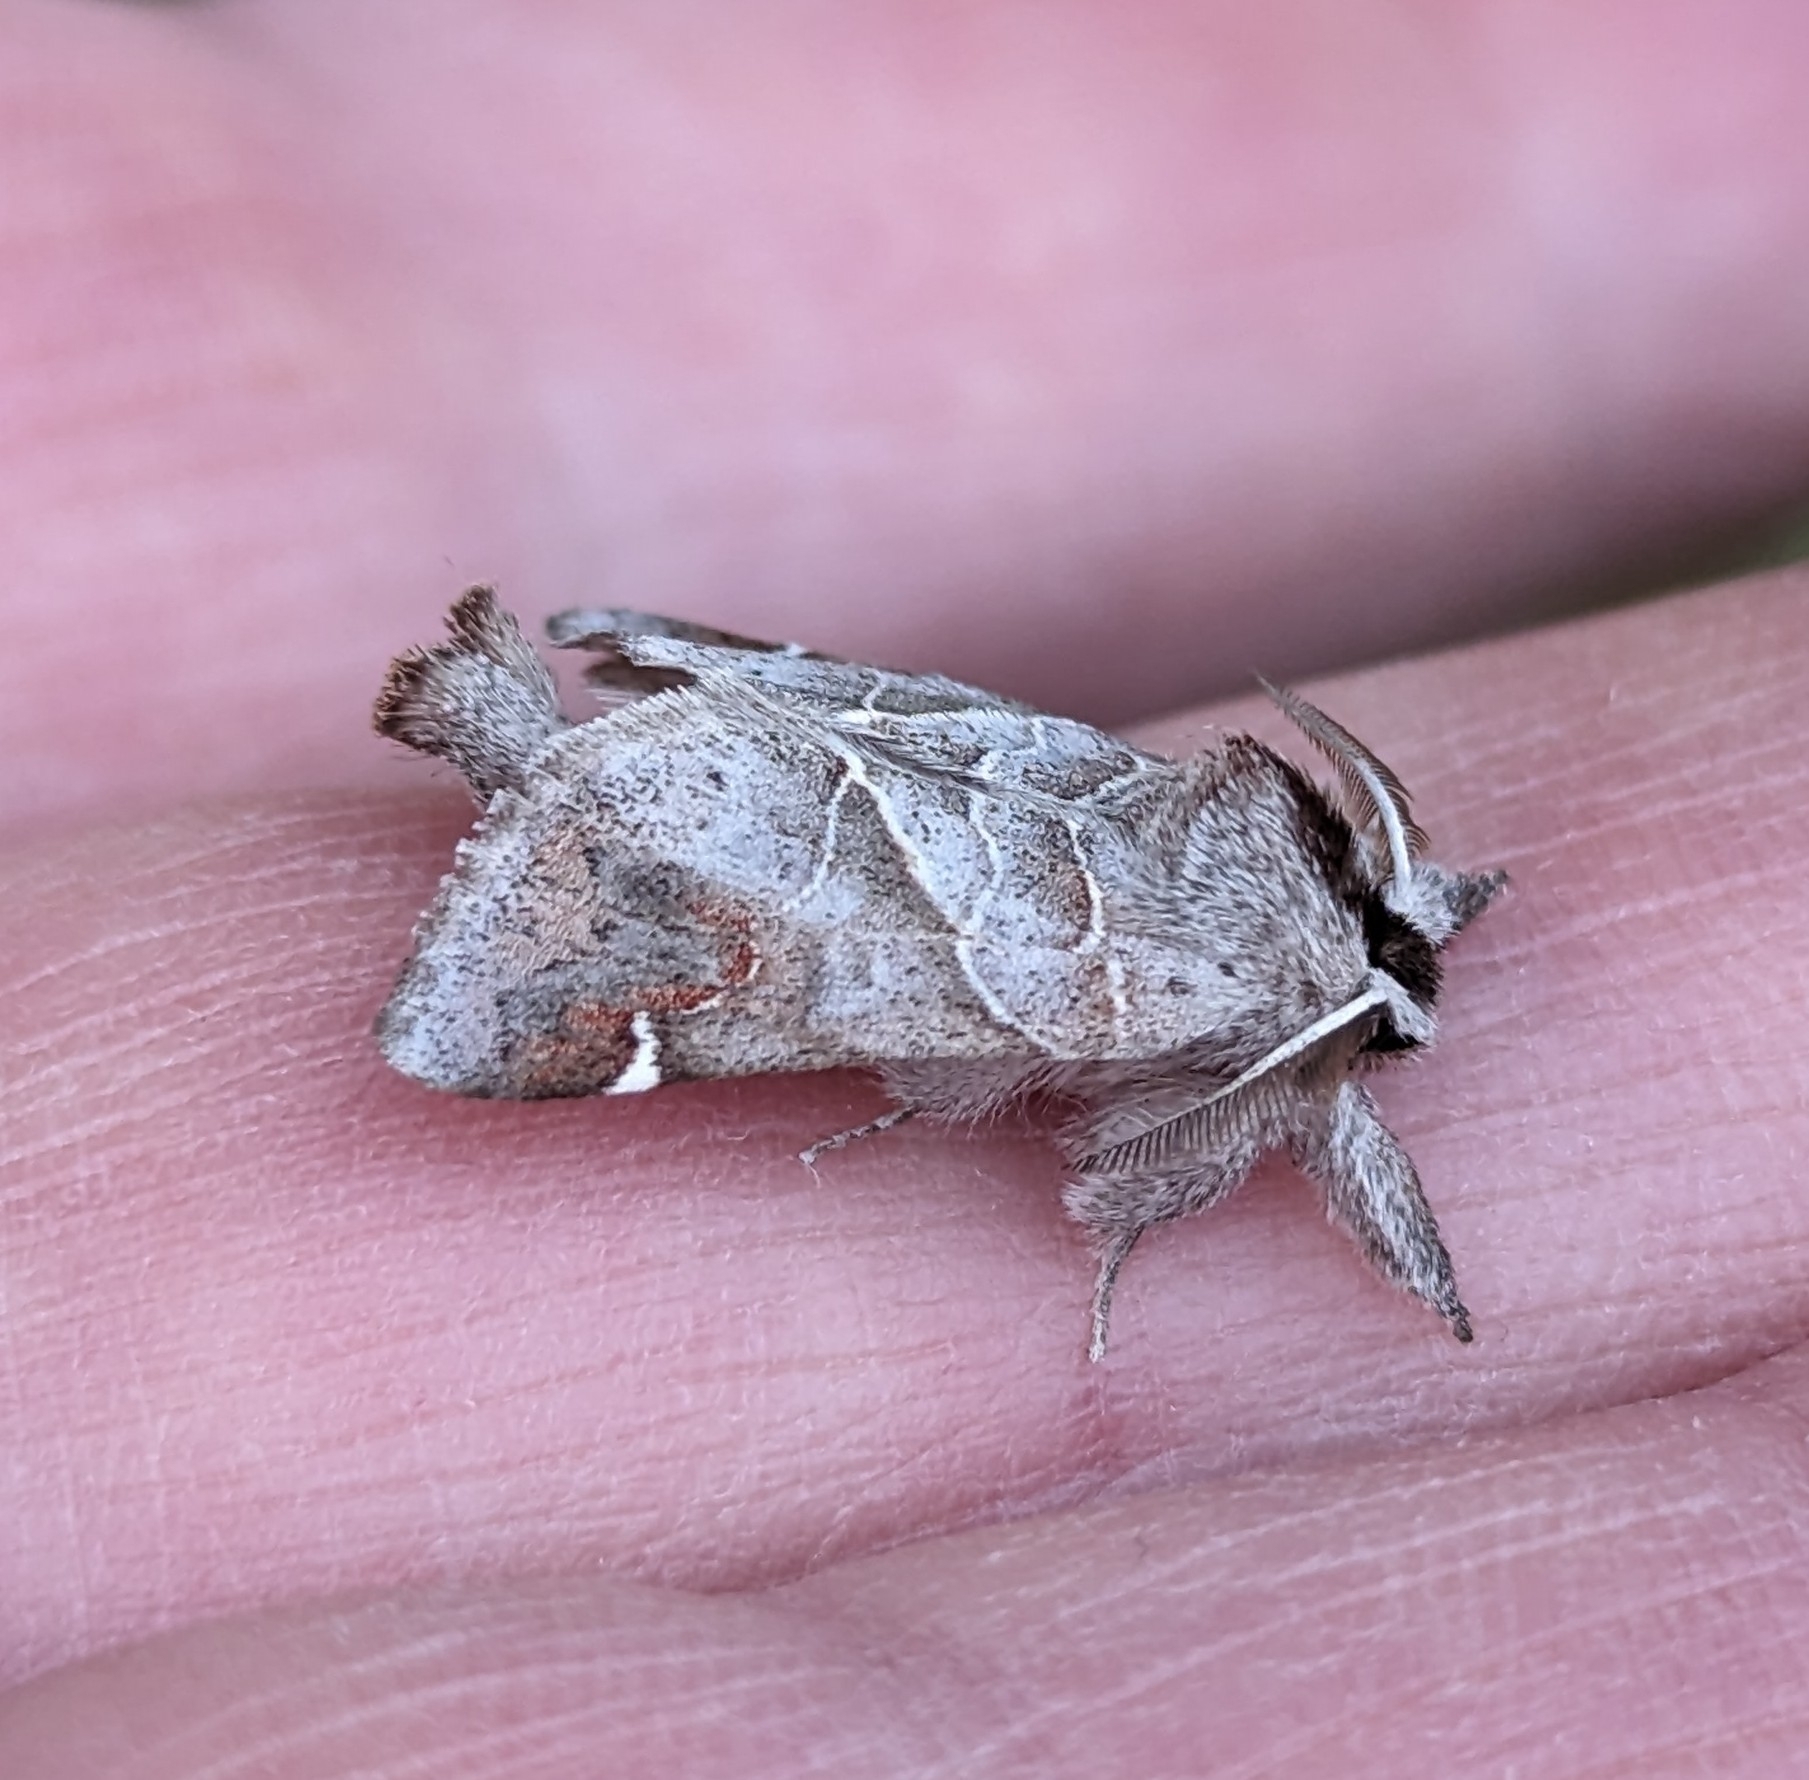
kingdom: Animalia
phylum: Arthropoda
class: Insecta
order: Lepidoptera
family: Notodontidae
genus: Clostera
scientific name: Clostera apicalis
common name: Apical prominent
